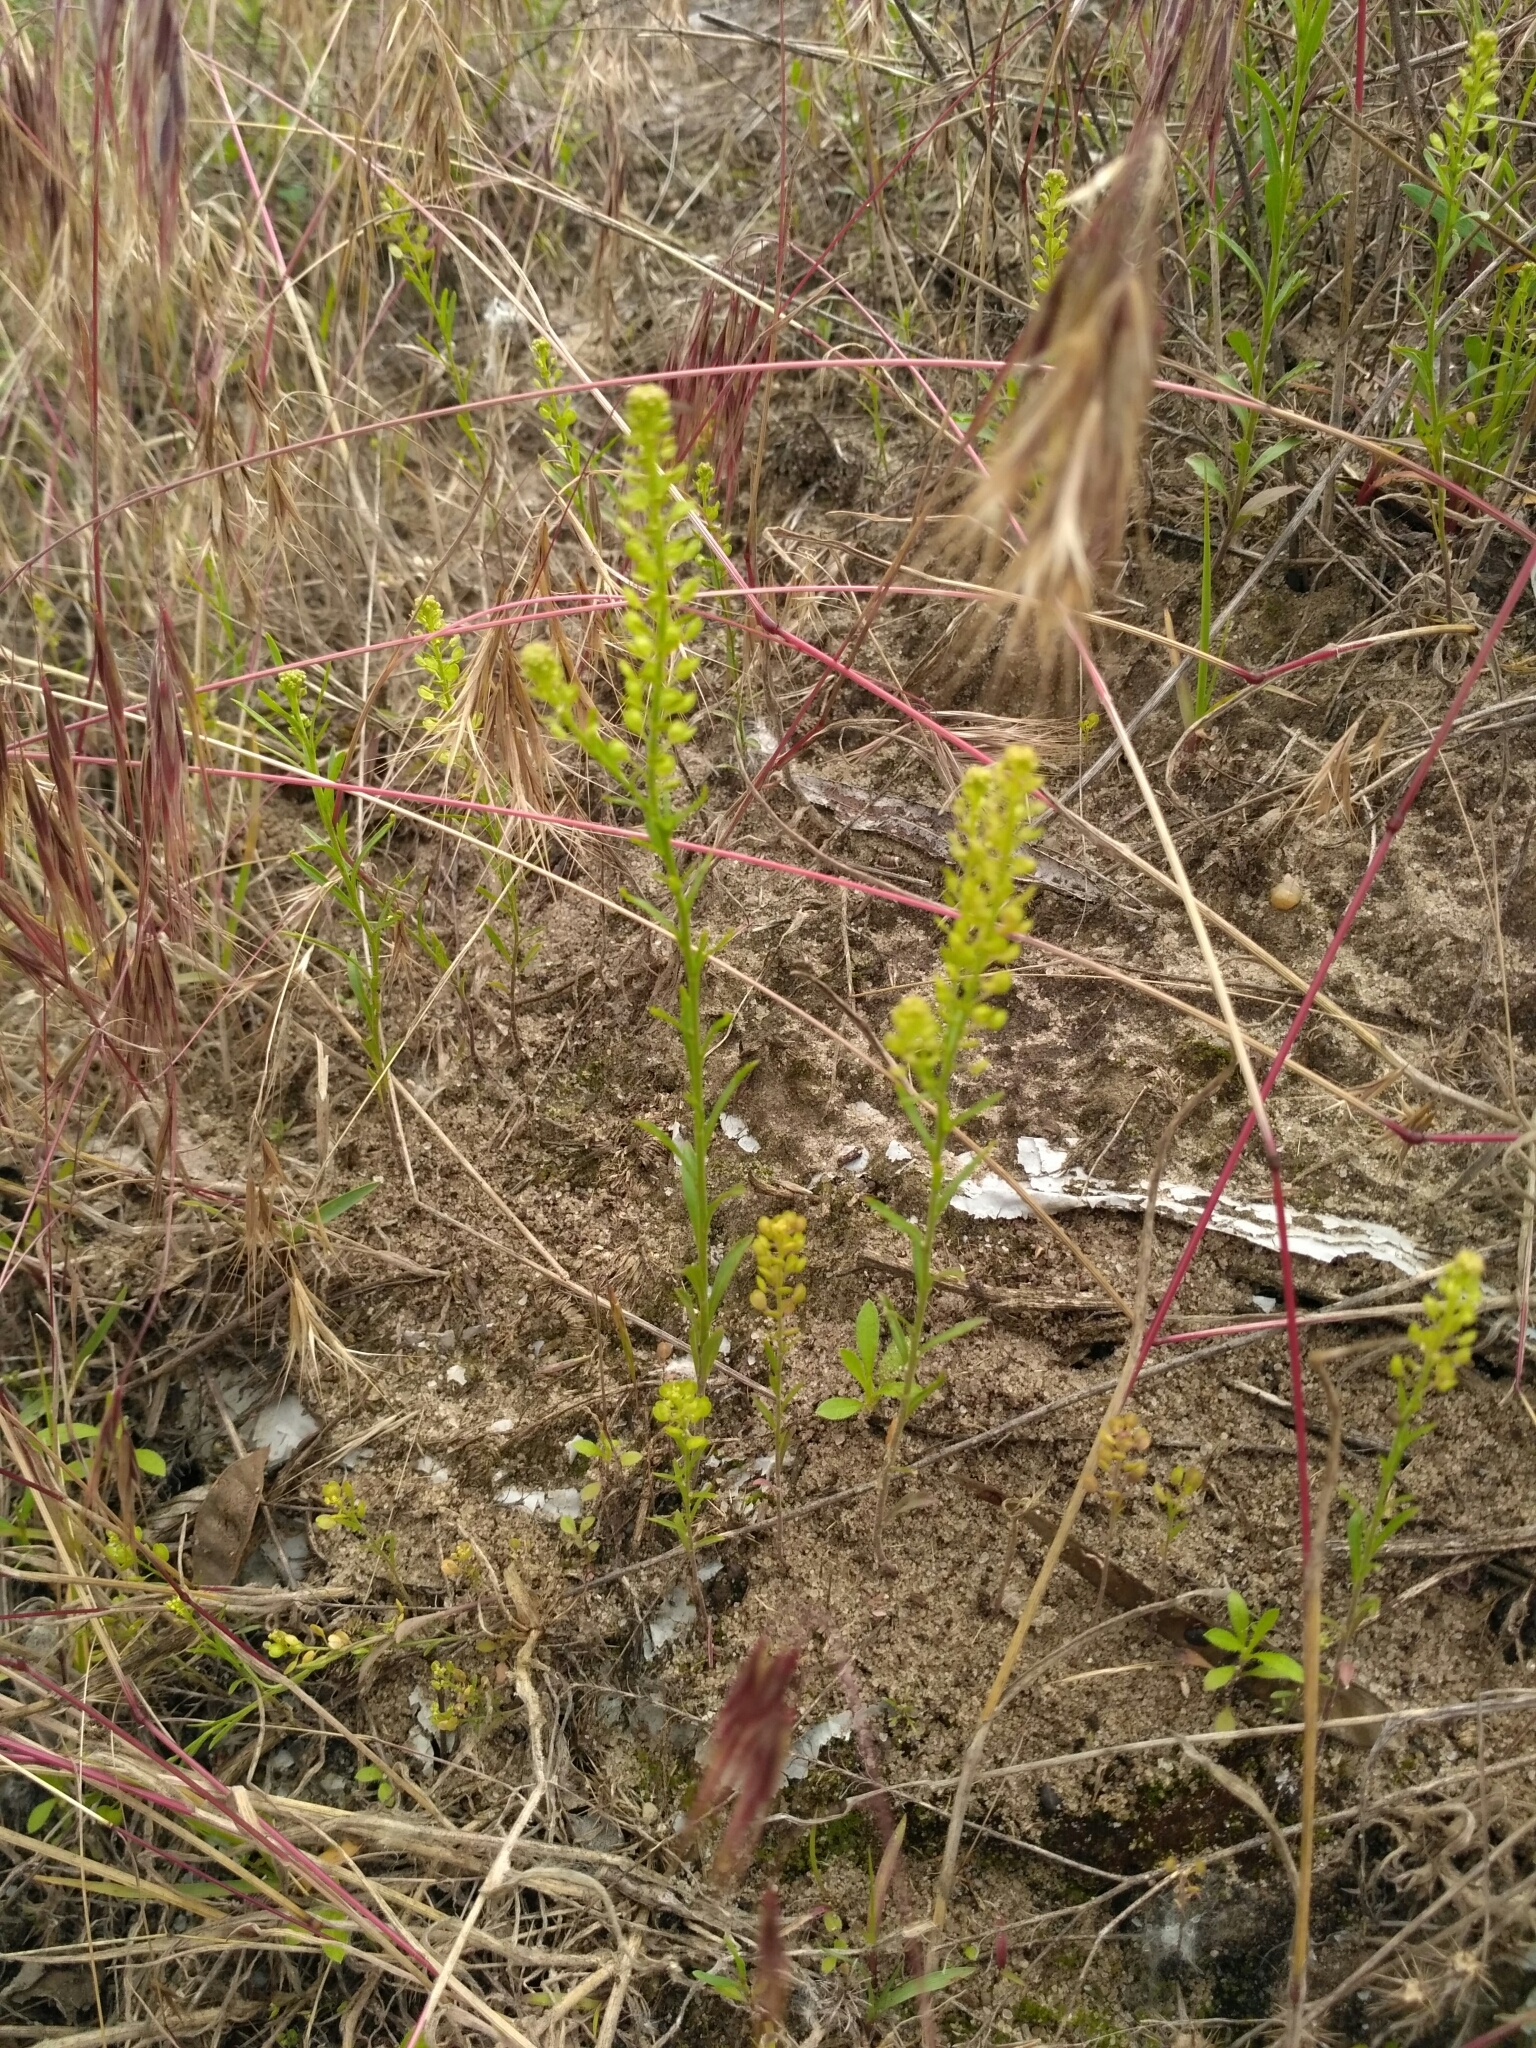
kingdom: Plantae
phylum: Tracheophyta
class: Magnoliopsida
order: Brassicales
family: Brassicaceae
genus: Lepidium
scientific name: Lepidium densiflorum
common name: Miner's pepperwort
